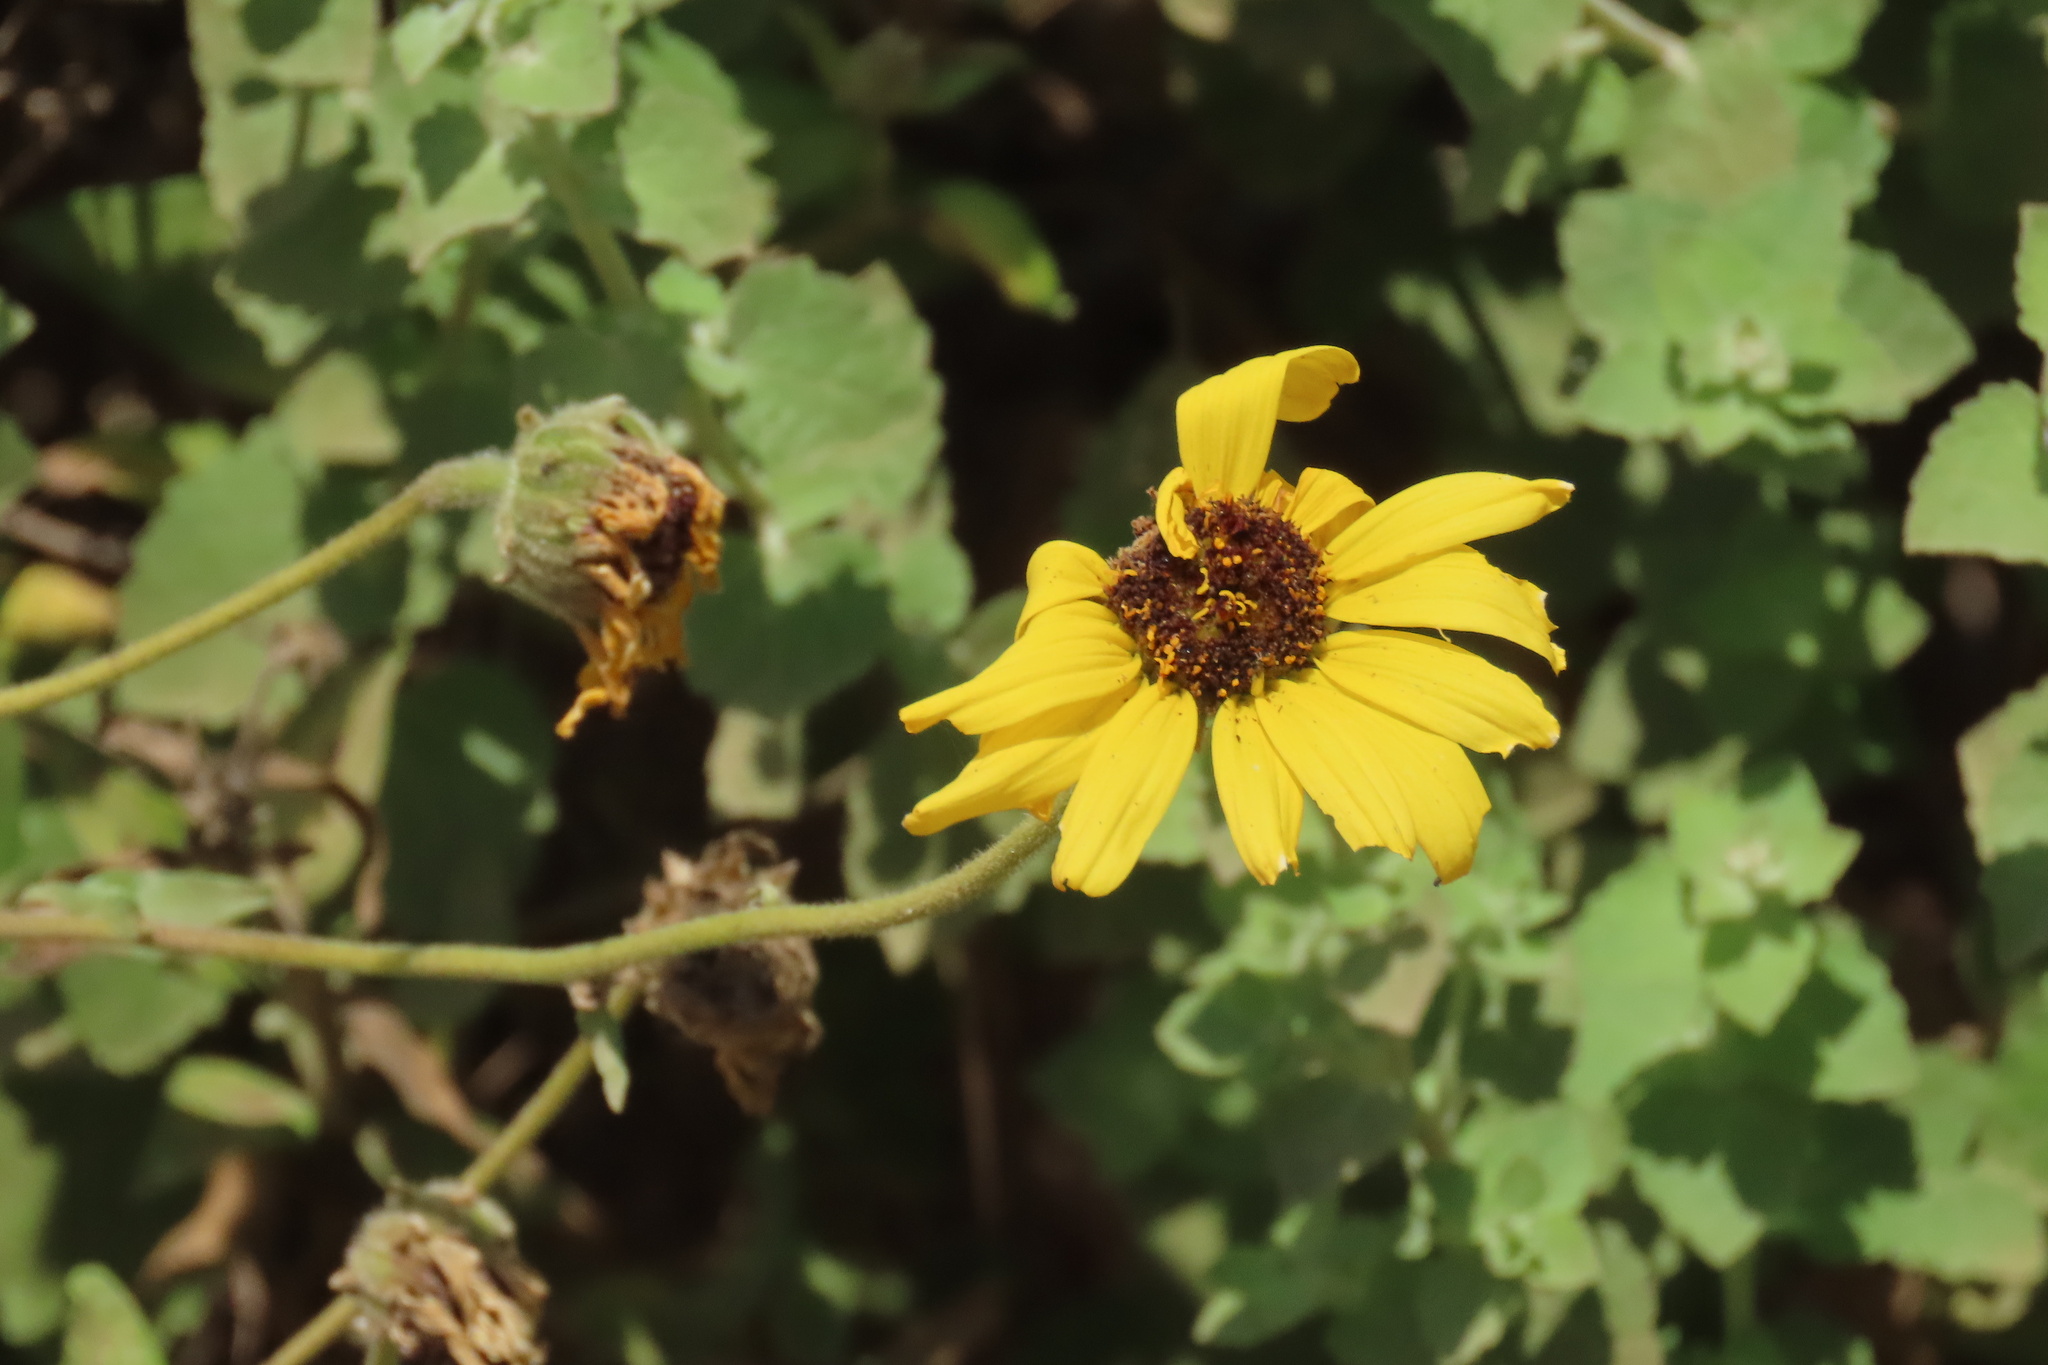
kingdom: Plantae
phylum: Tracheophyta
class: Magnoliopsida
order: Asterales
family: Asteraceae
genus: Encelia
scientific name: Encelia californica
